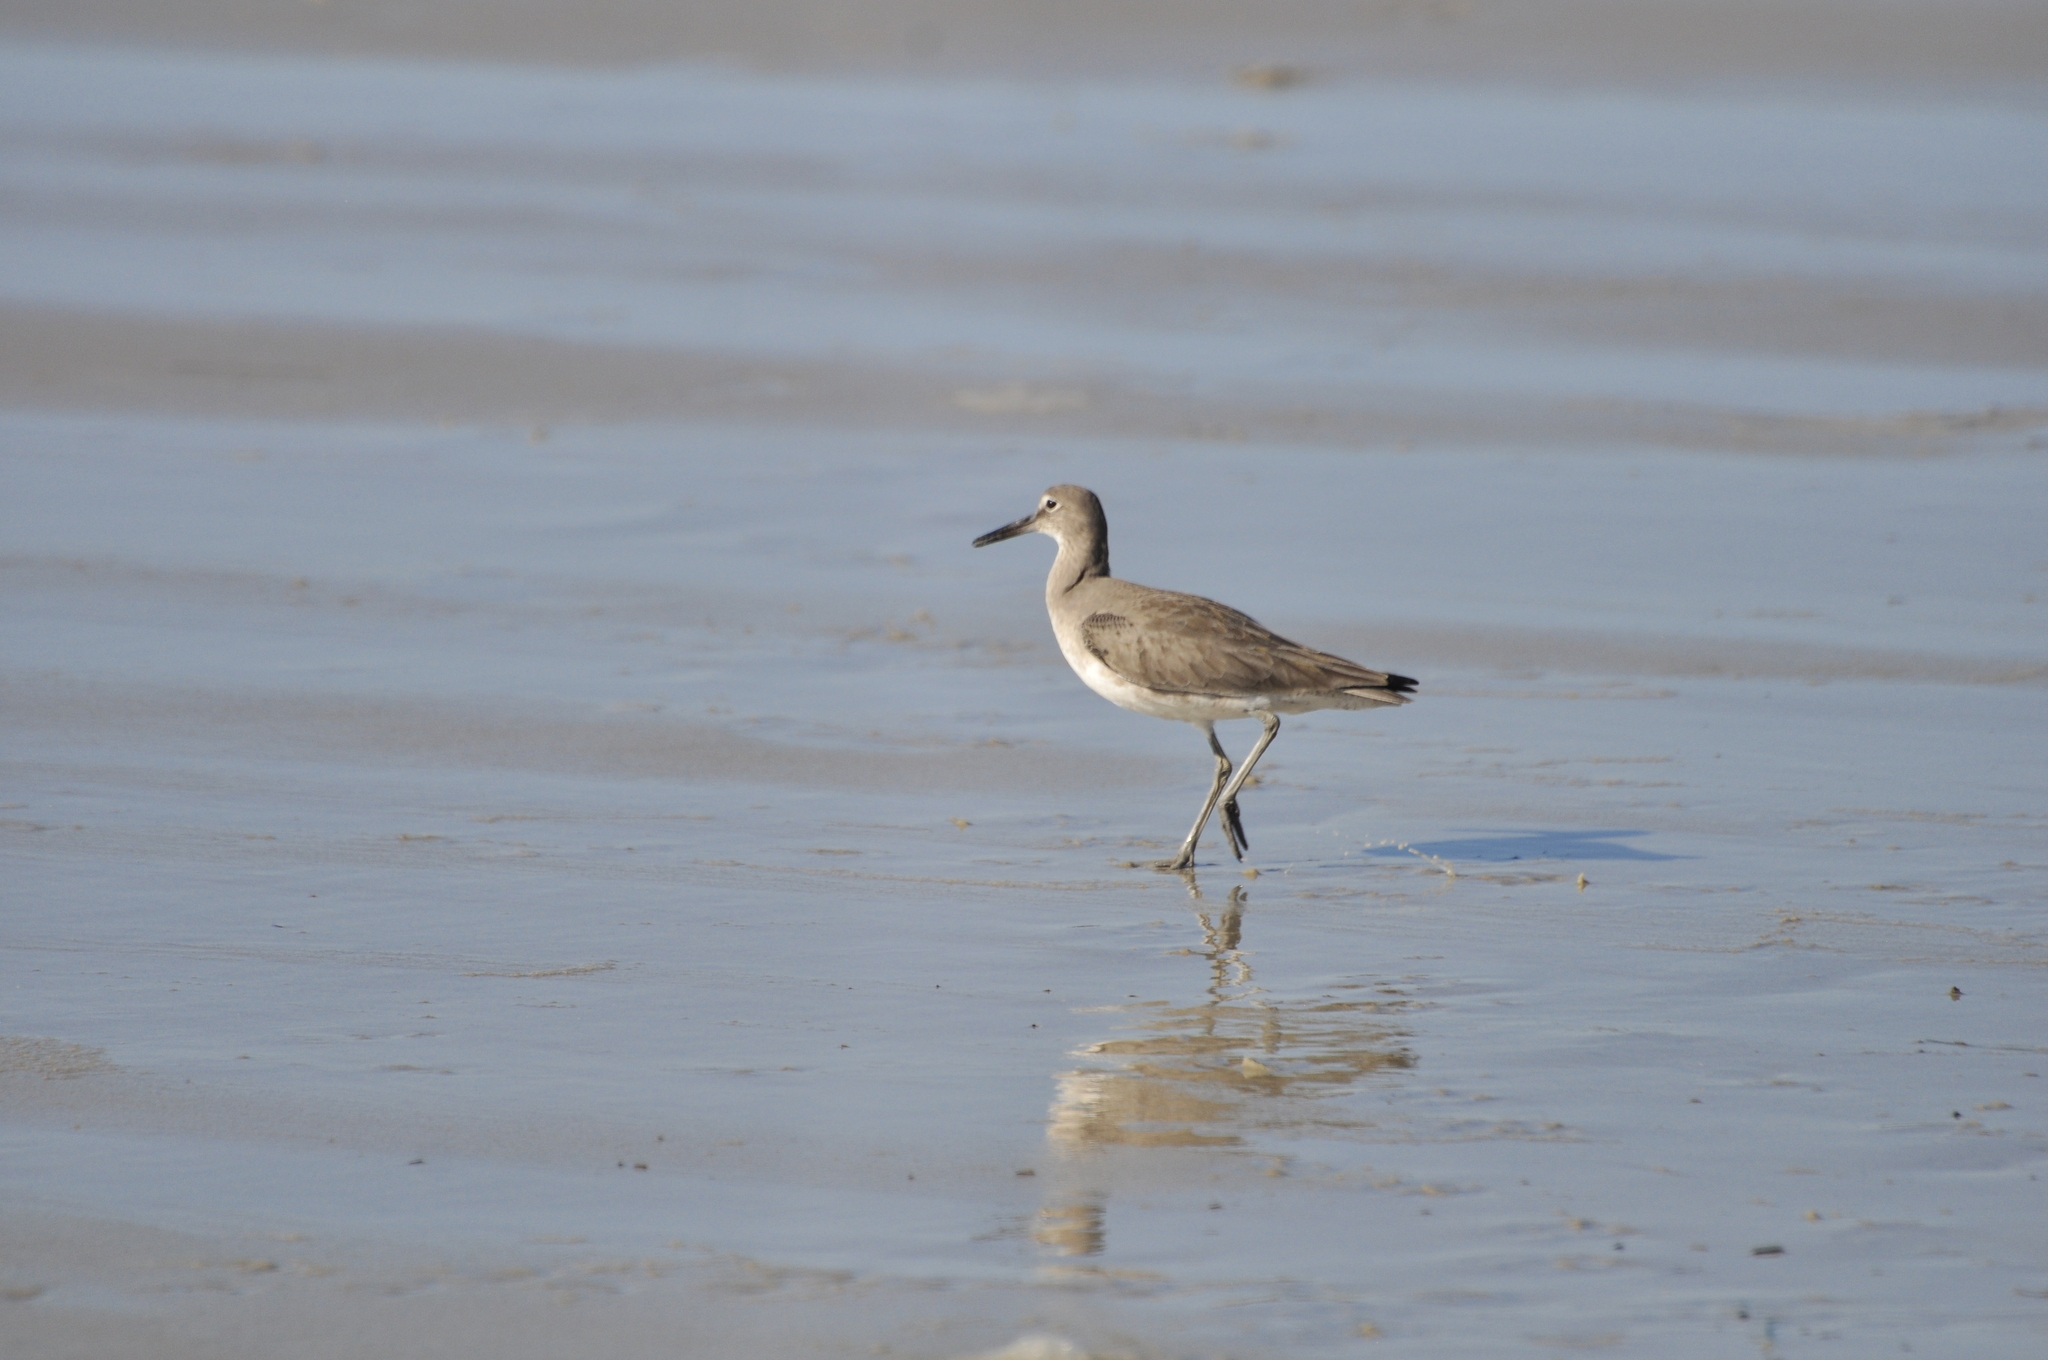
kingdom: Animalia
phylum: Chordata
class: Aves
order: Charadriiformes
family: Scolopacidae
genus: Tringa
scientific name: Tringa semipalmata
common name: Willet
